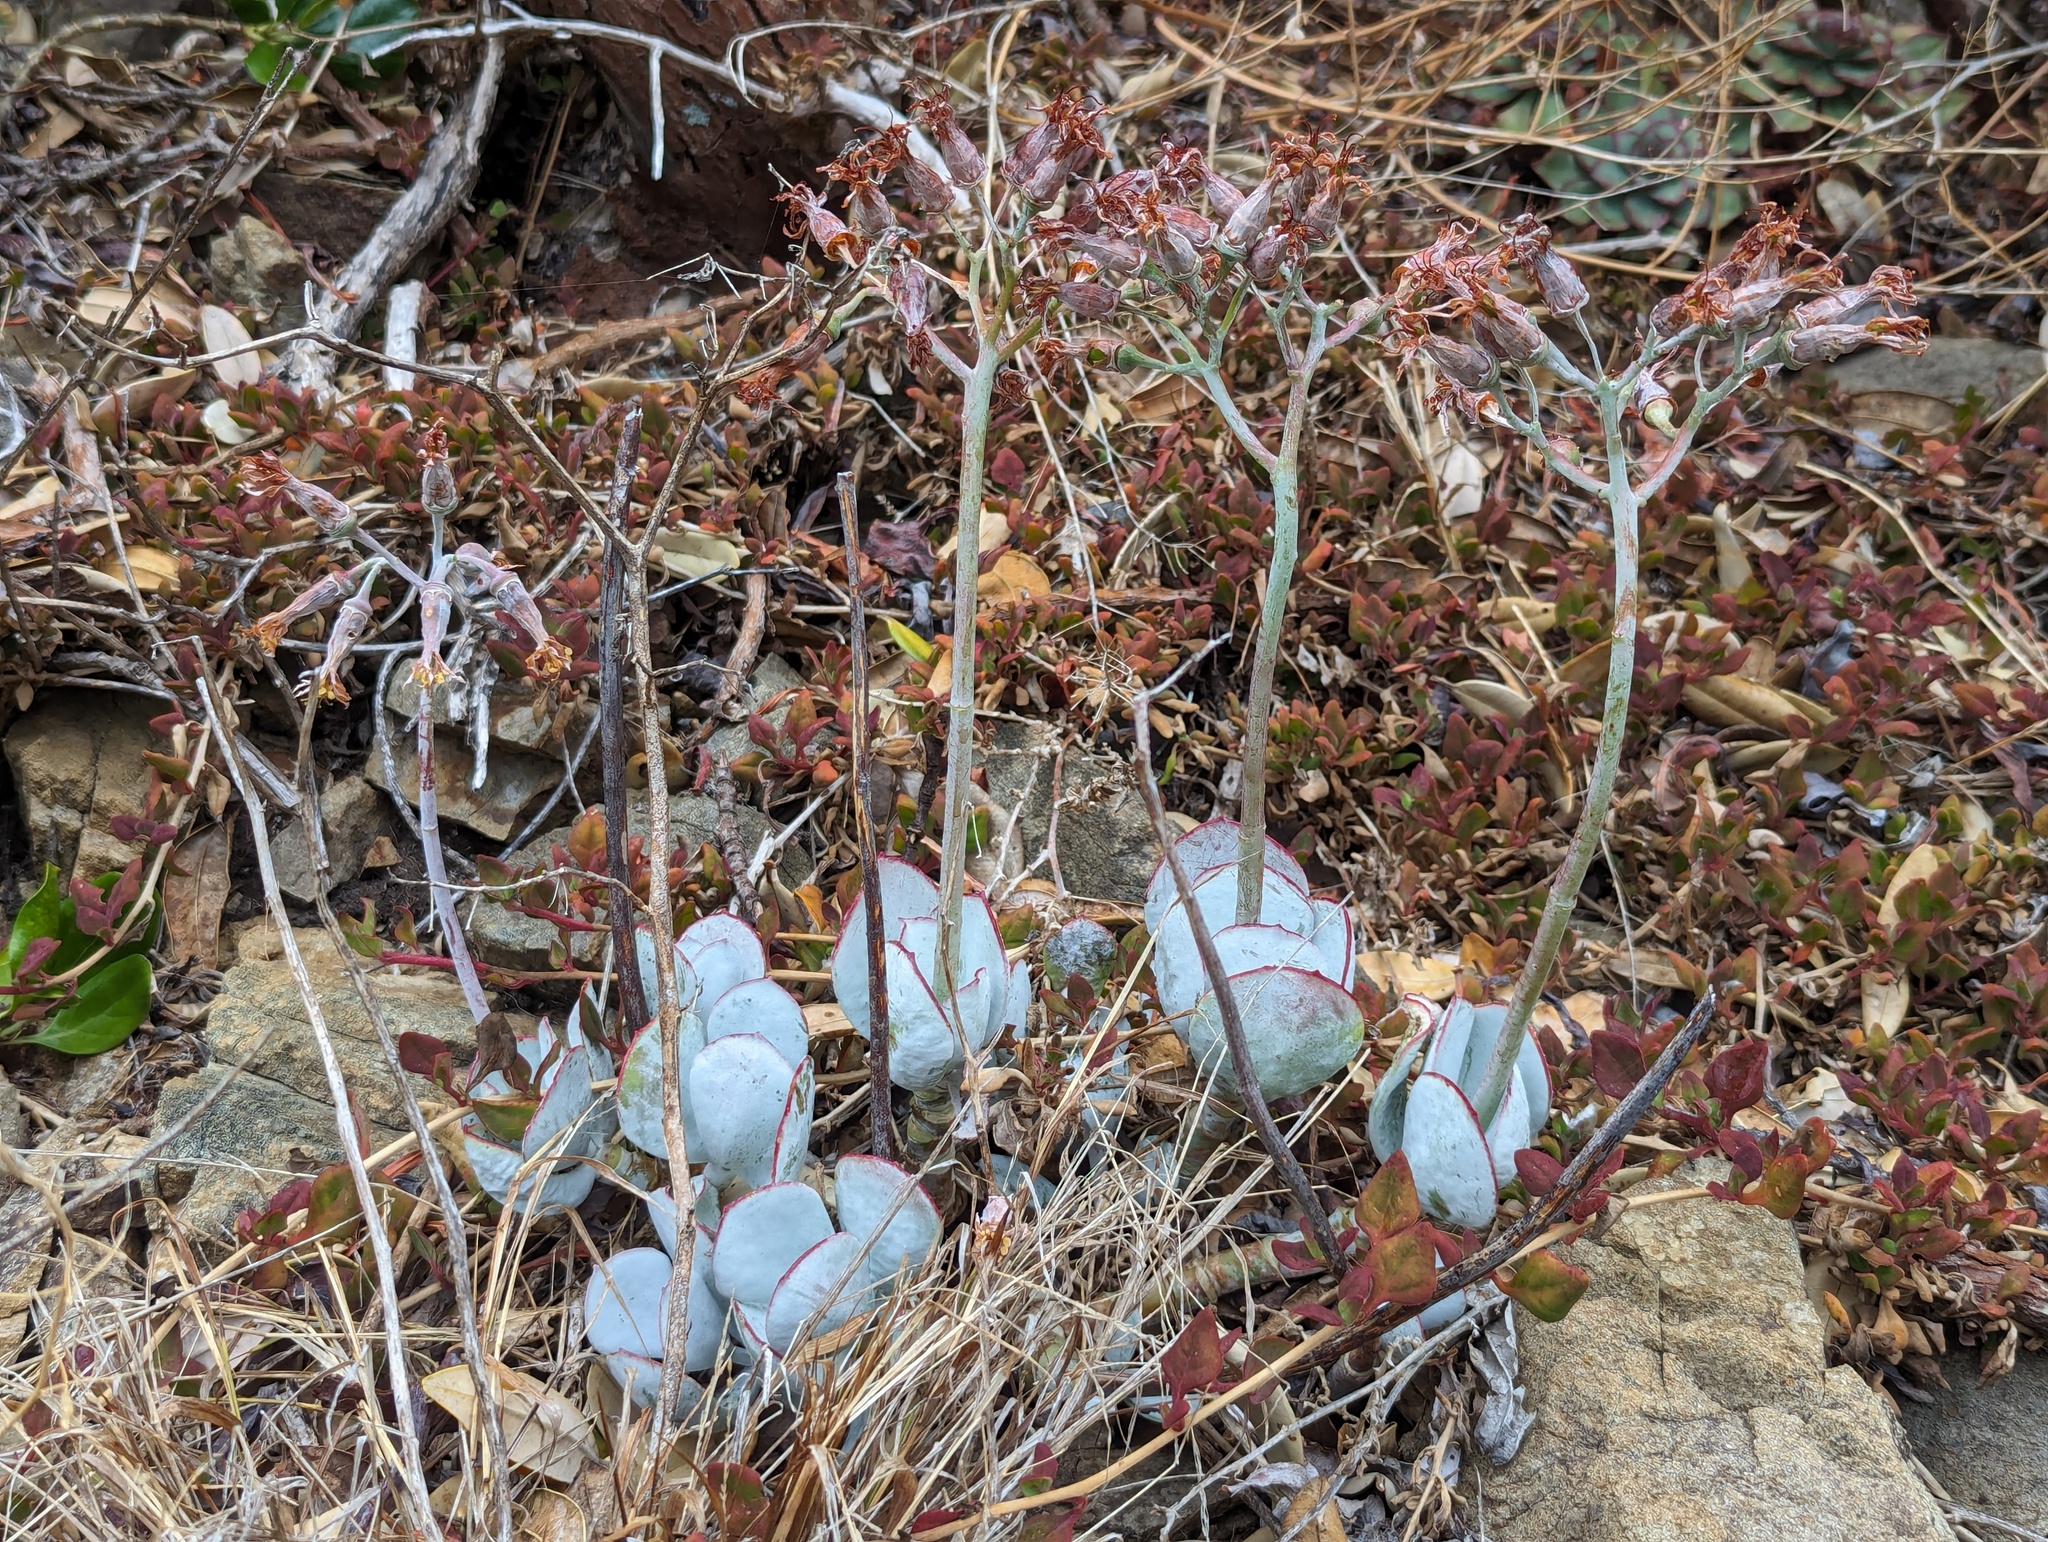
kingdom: Plantae
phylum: Tracheophyta
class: Magnoliopsida
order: Saxifragales
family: Crassulaceae
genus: Cotyledon
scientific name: Cotyledon orbiculata
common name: Pig's ear
